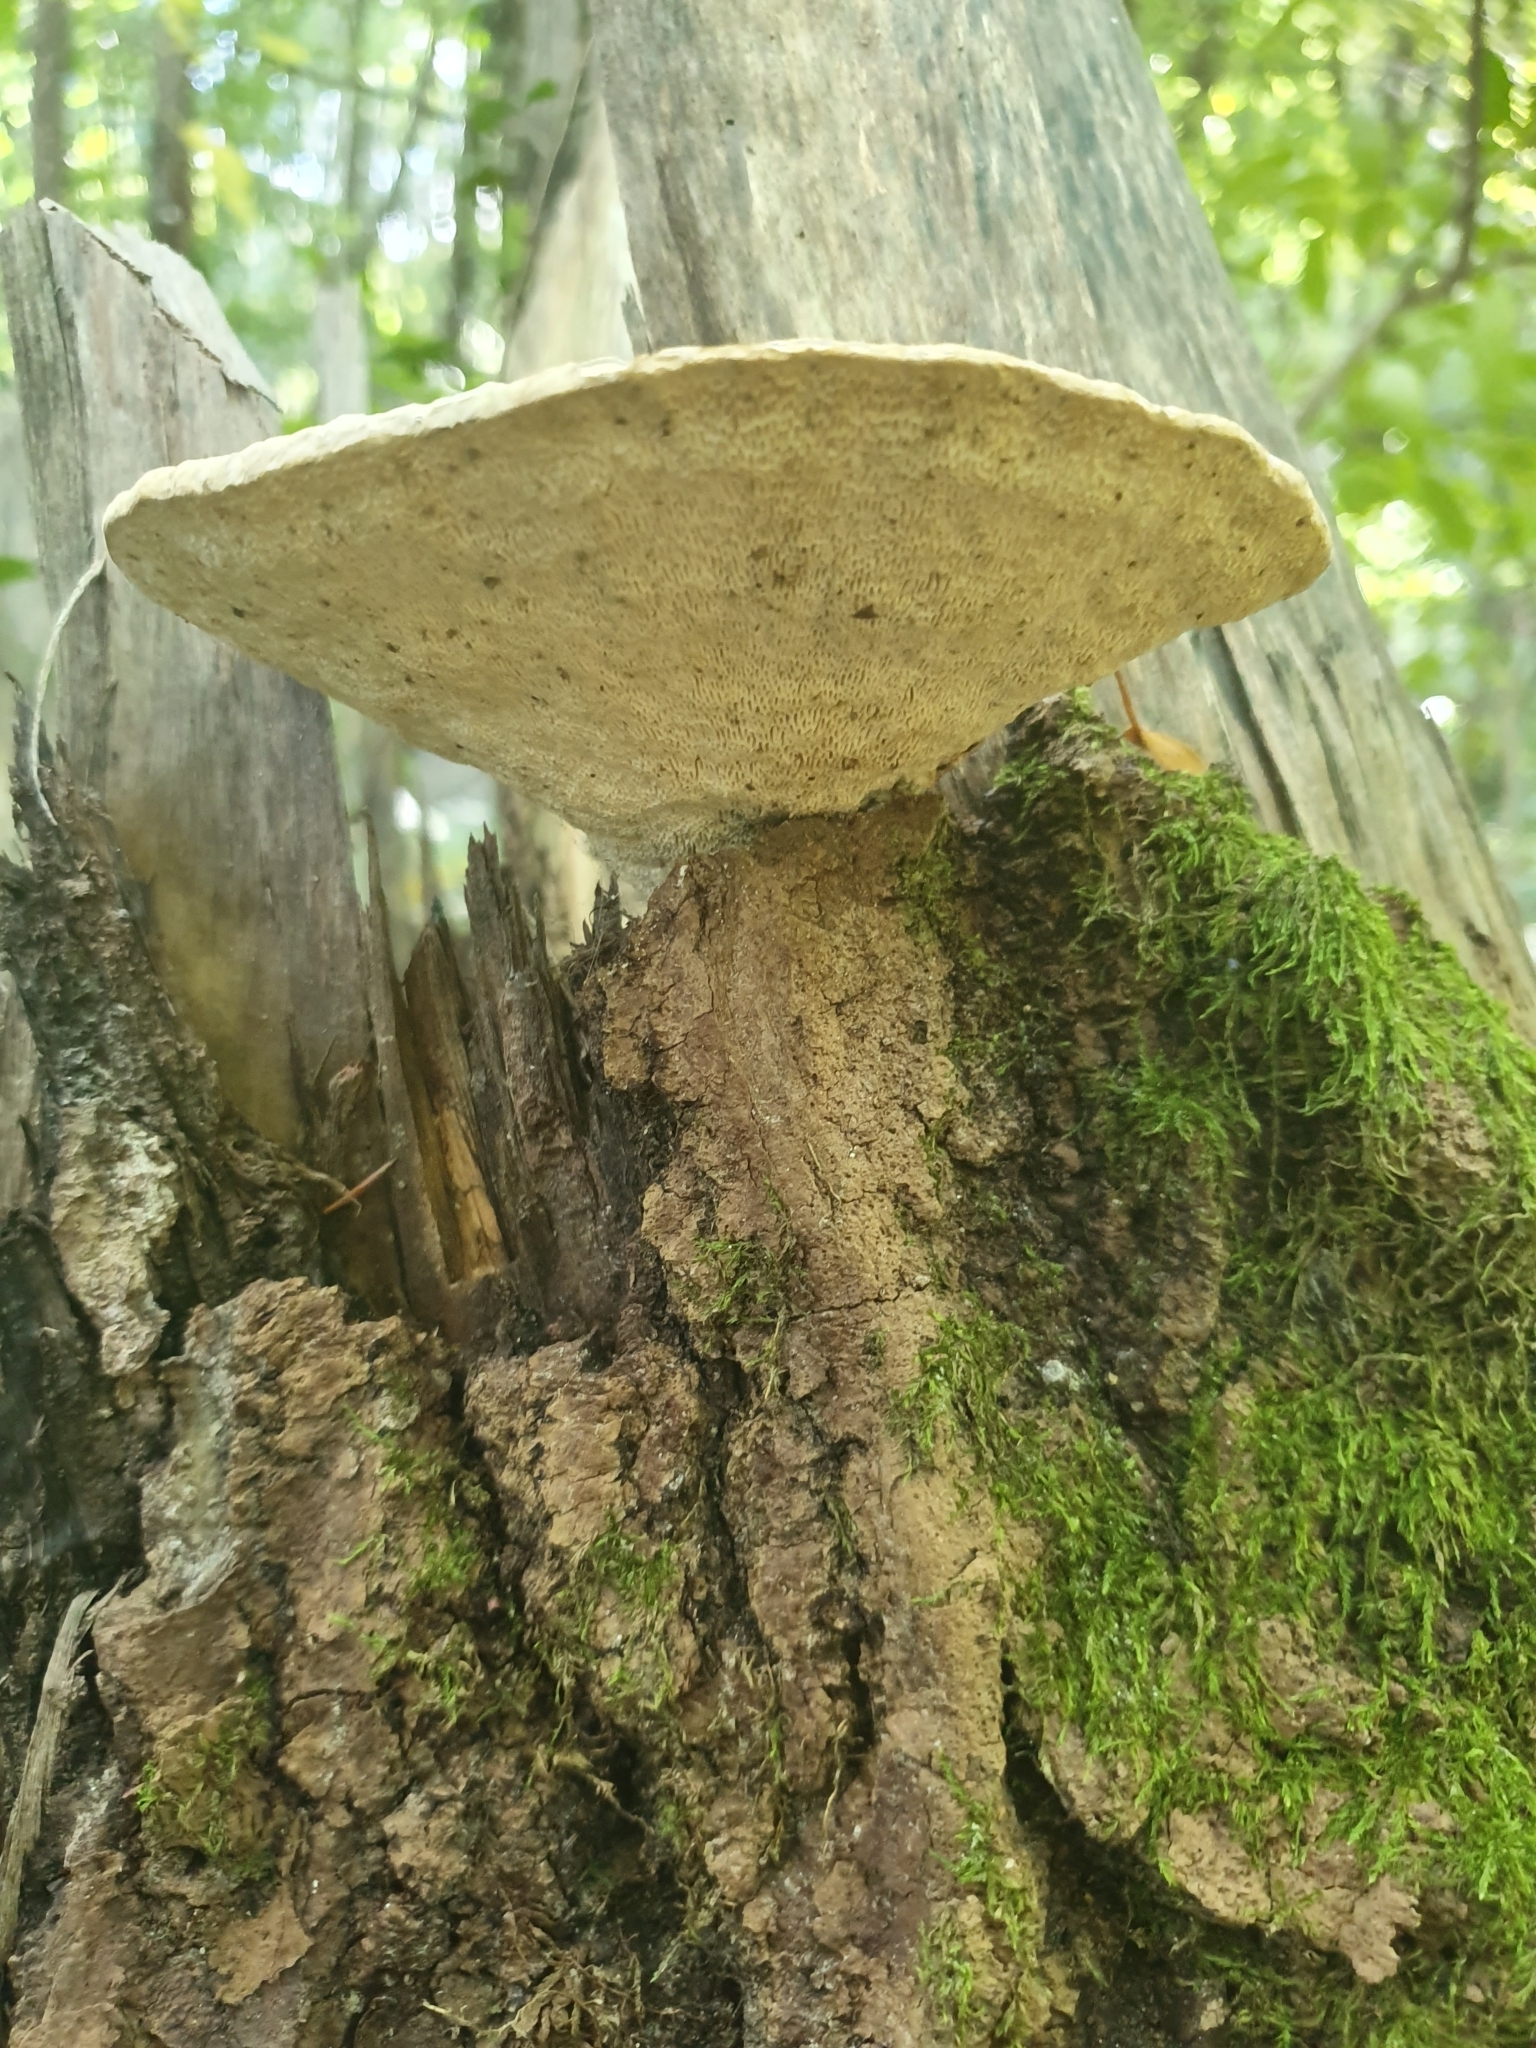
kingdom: Fungi
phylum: Basidiomycota
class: Agaricomycetes
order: Polyporales
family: Polyporaceae
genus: Trametes
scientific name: Trametes gibbosa
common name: Lumpy bracket
